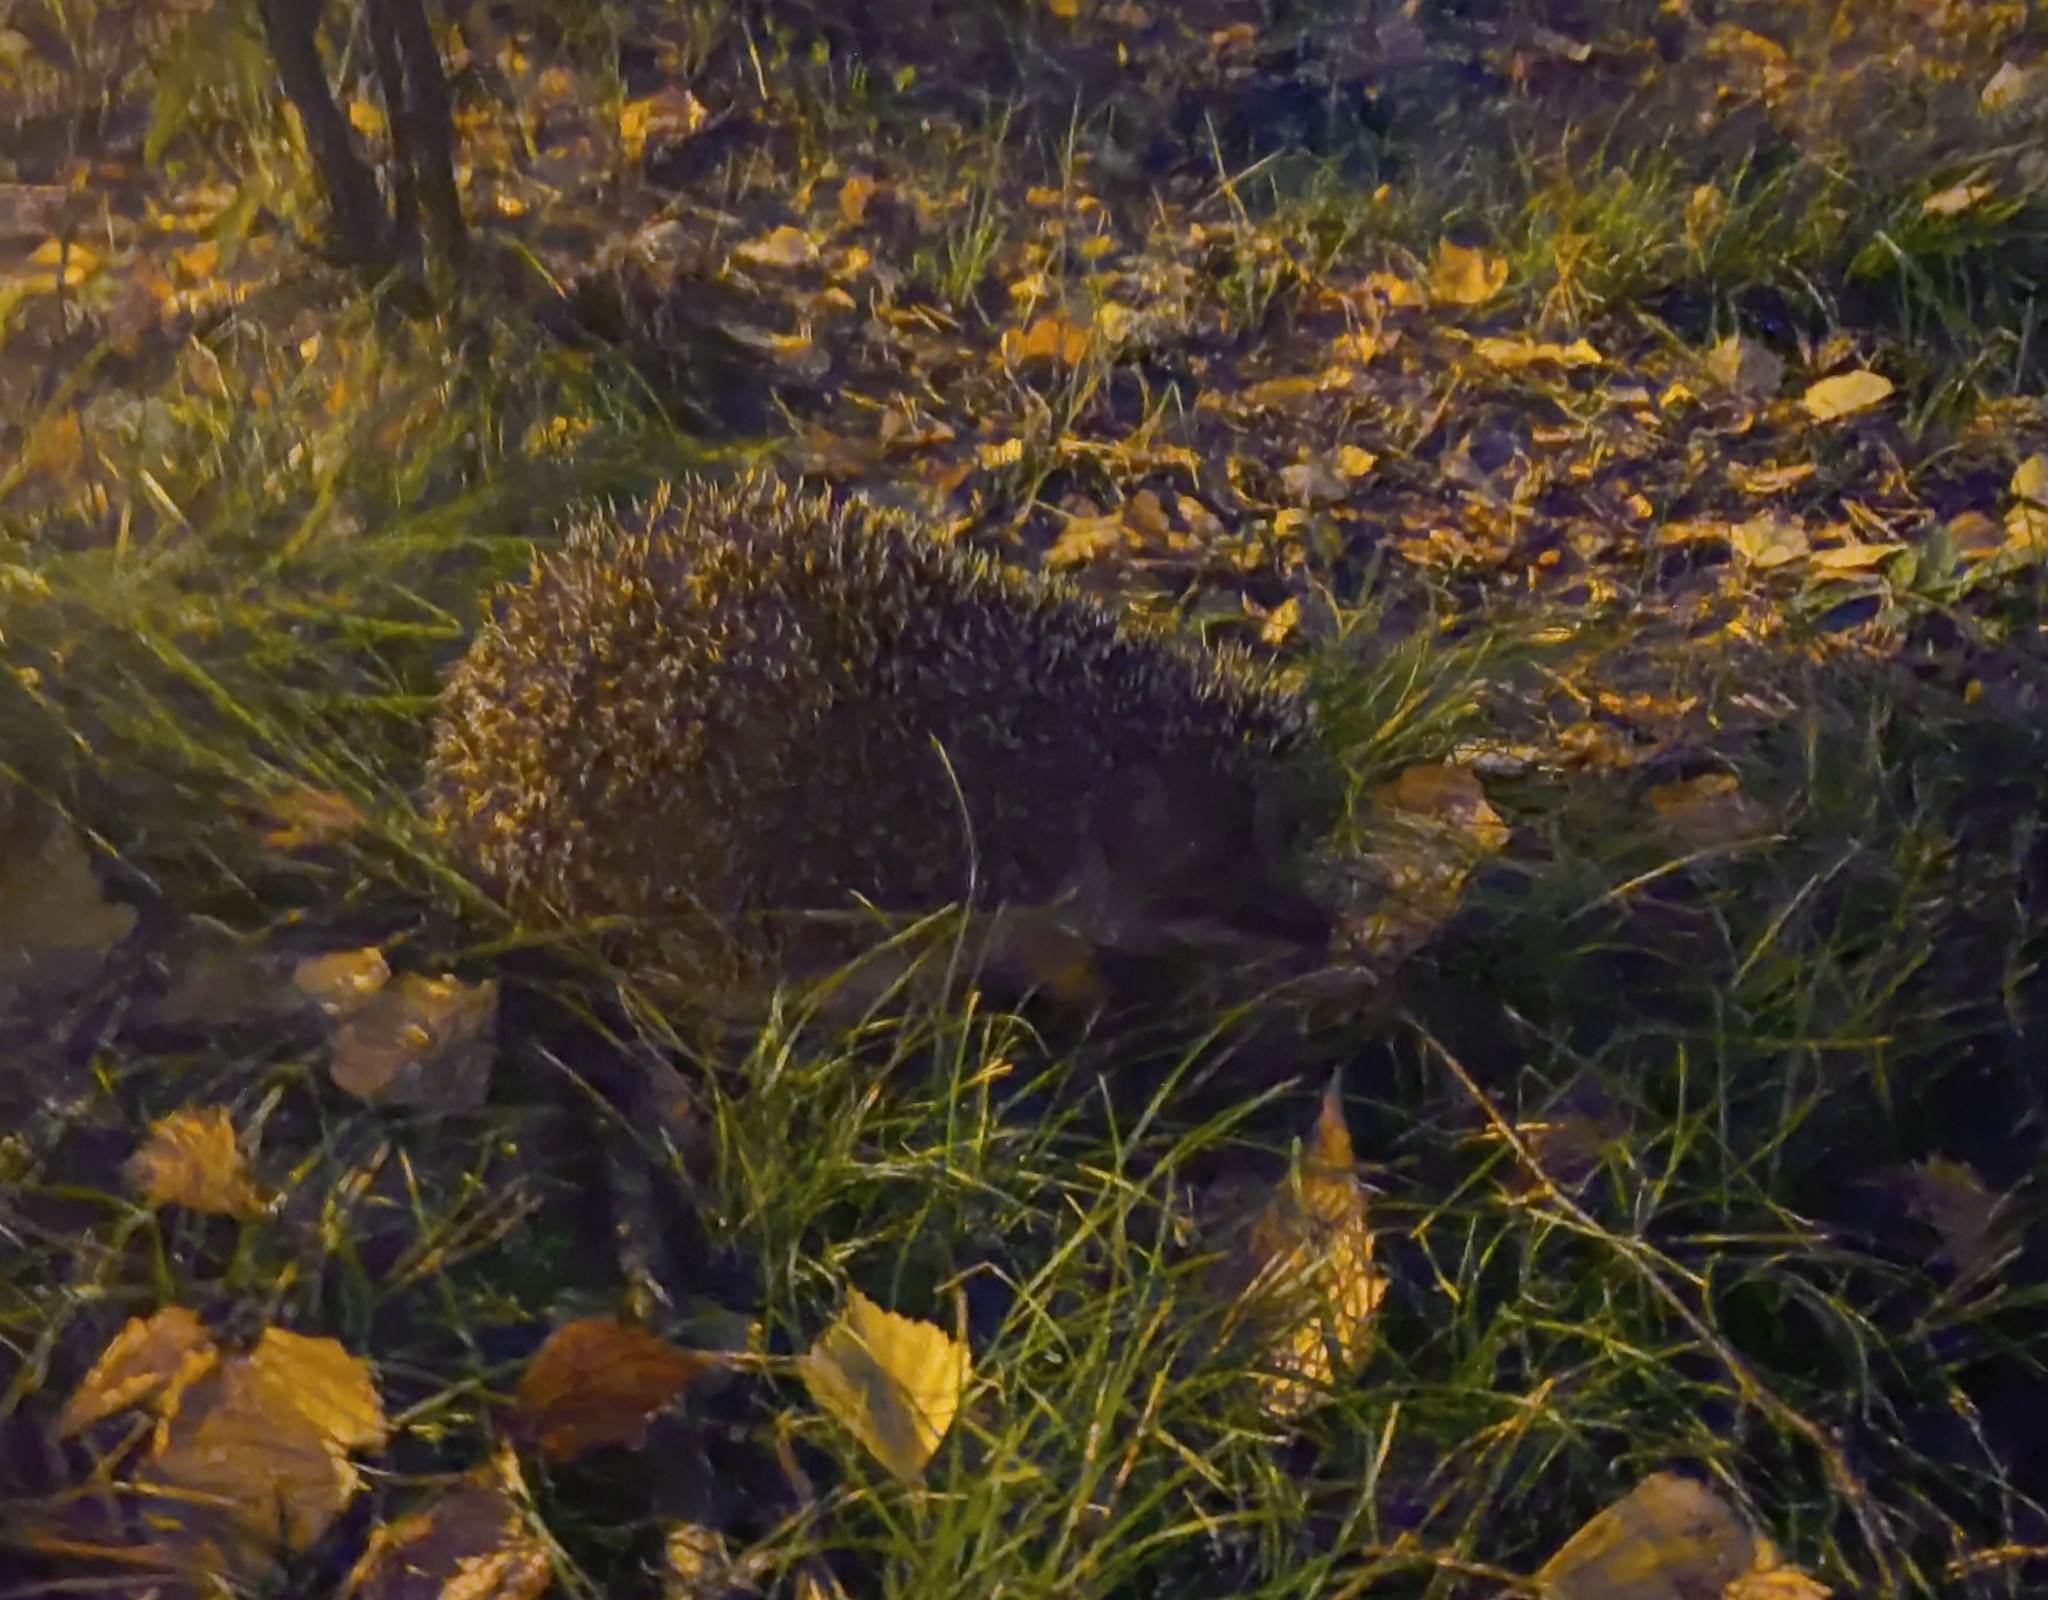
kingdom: Animalia
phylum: Chordata
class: Mammalia
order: Erinaceomorpha
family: Erinaceidae
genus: Erinaceus
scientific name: Erinaceus roumanicus
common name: Northern white-breasted hedgehog
